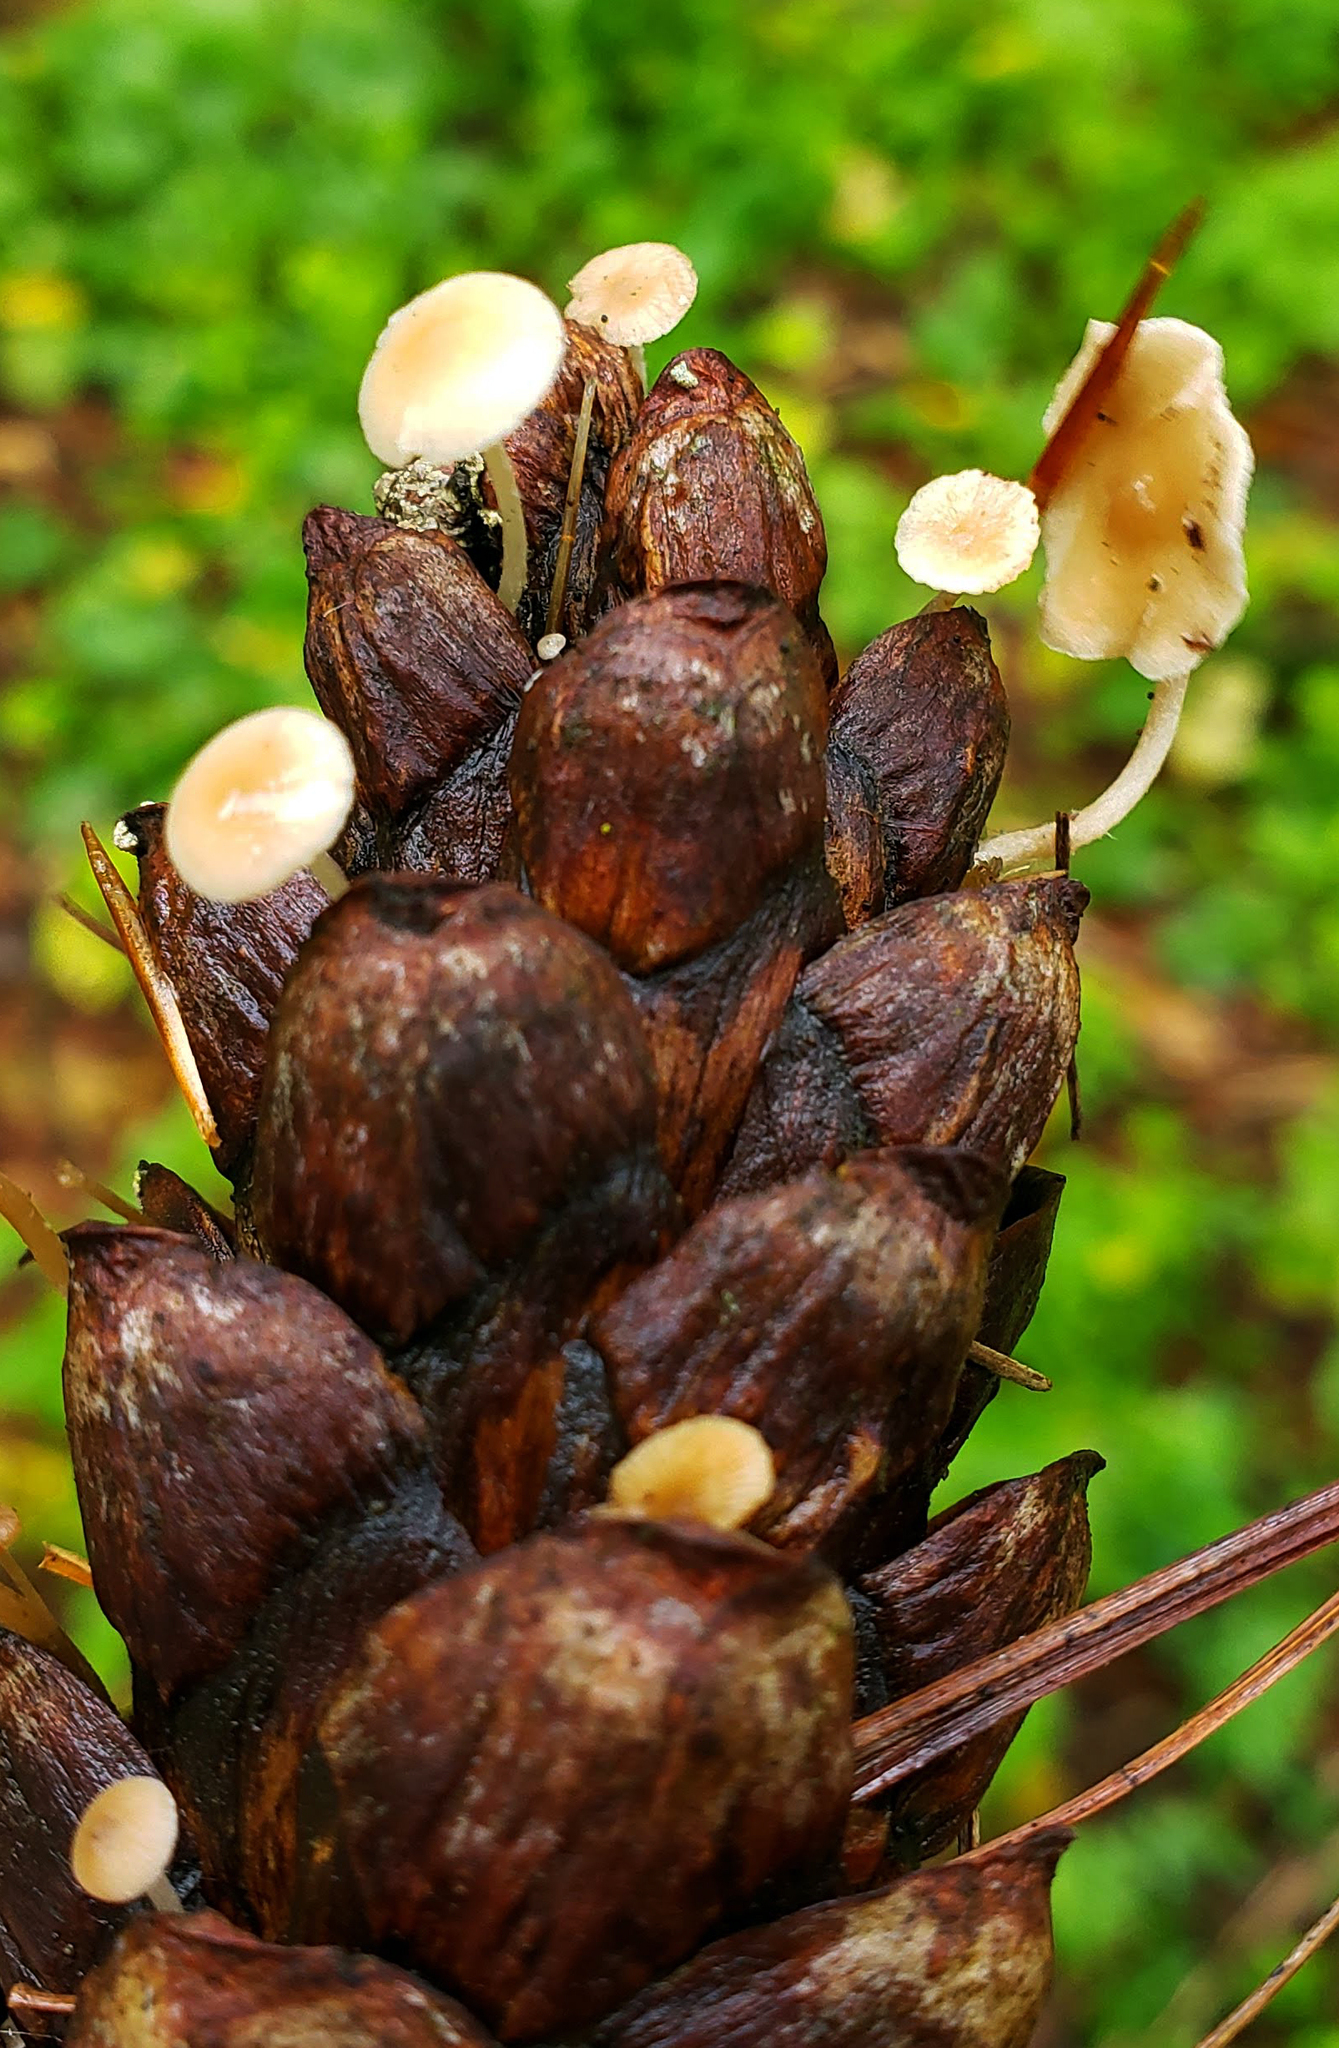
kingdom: Fungi
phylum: Basidiomycota
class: Agaricomycetes
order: Agaricales
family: Marasmiaceae
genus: Baeospora
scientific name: Baeospora myosura
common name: Conifercone cap
